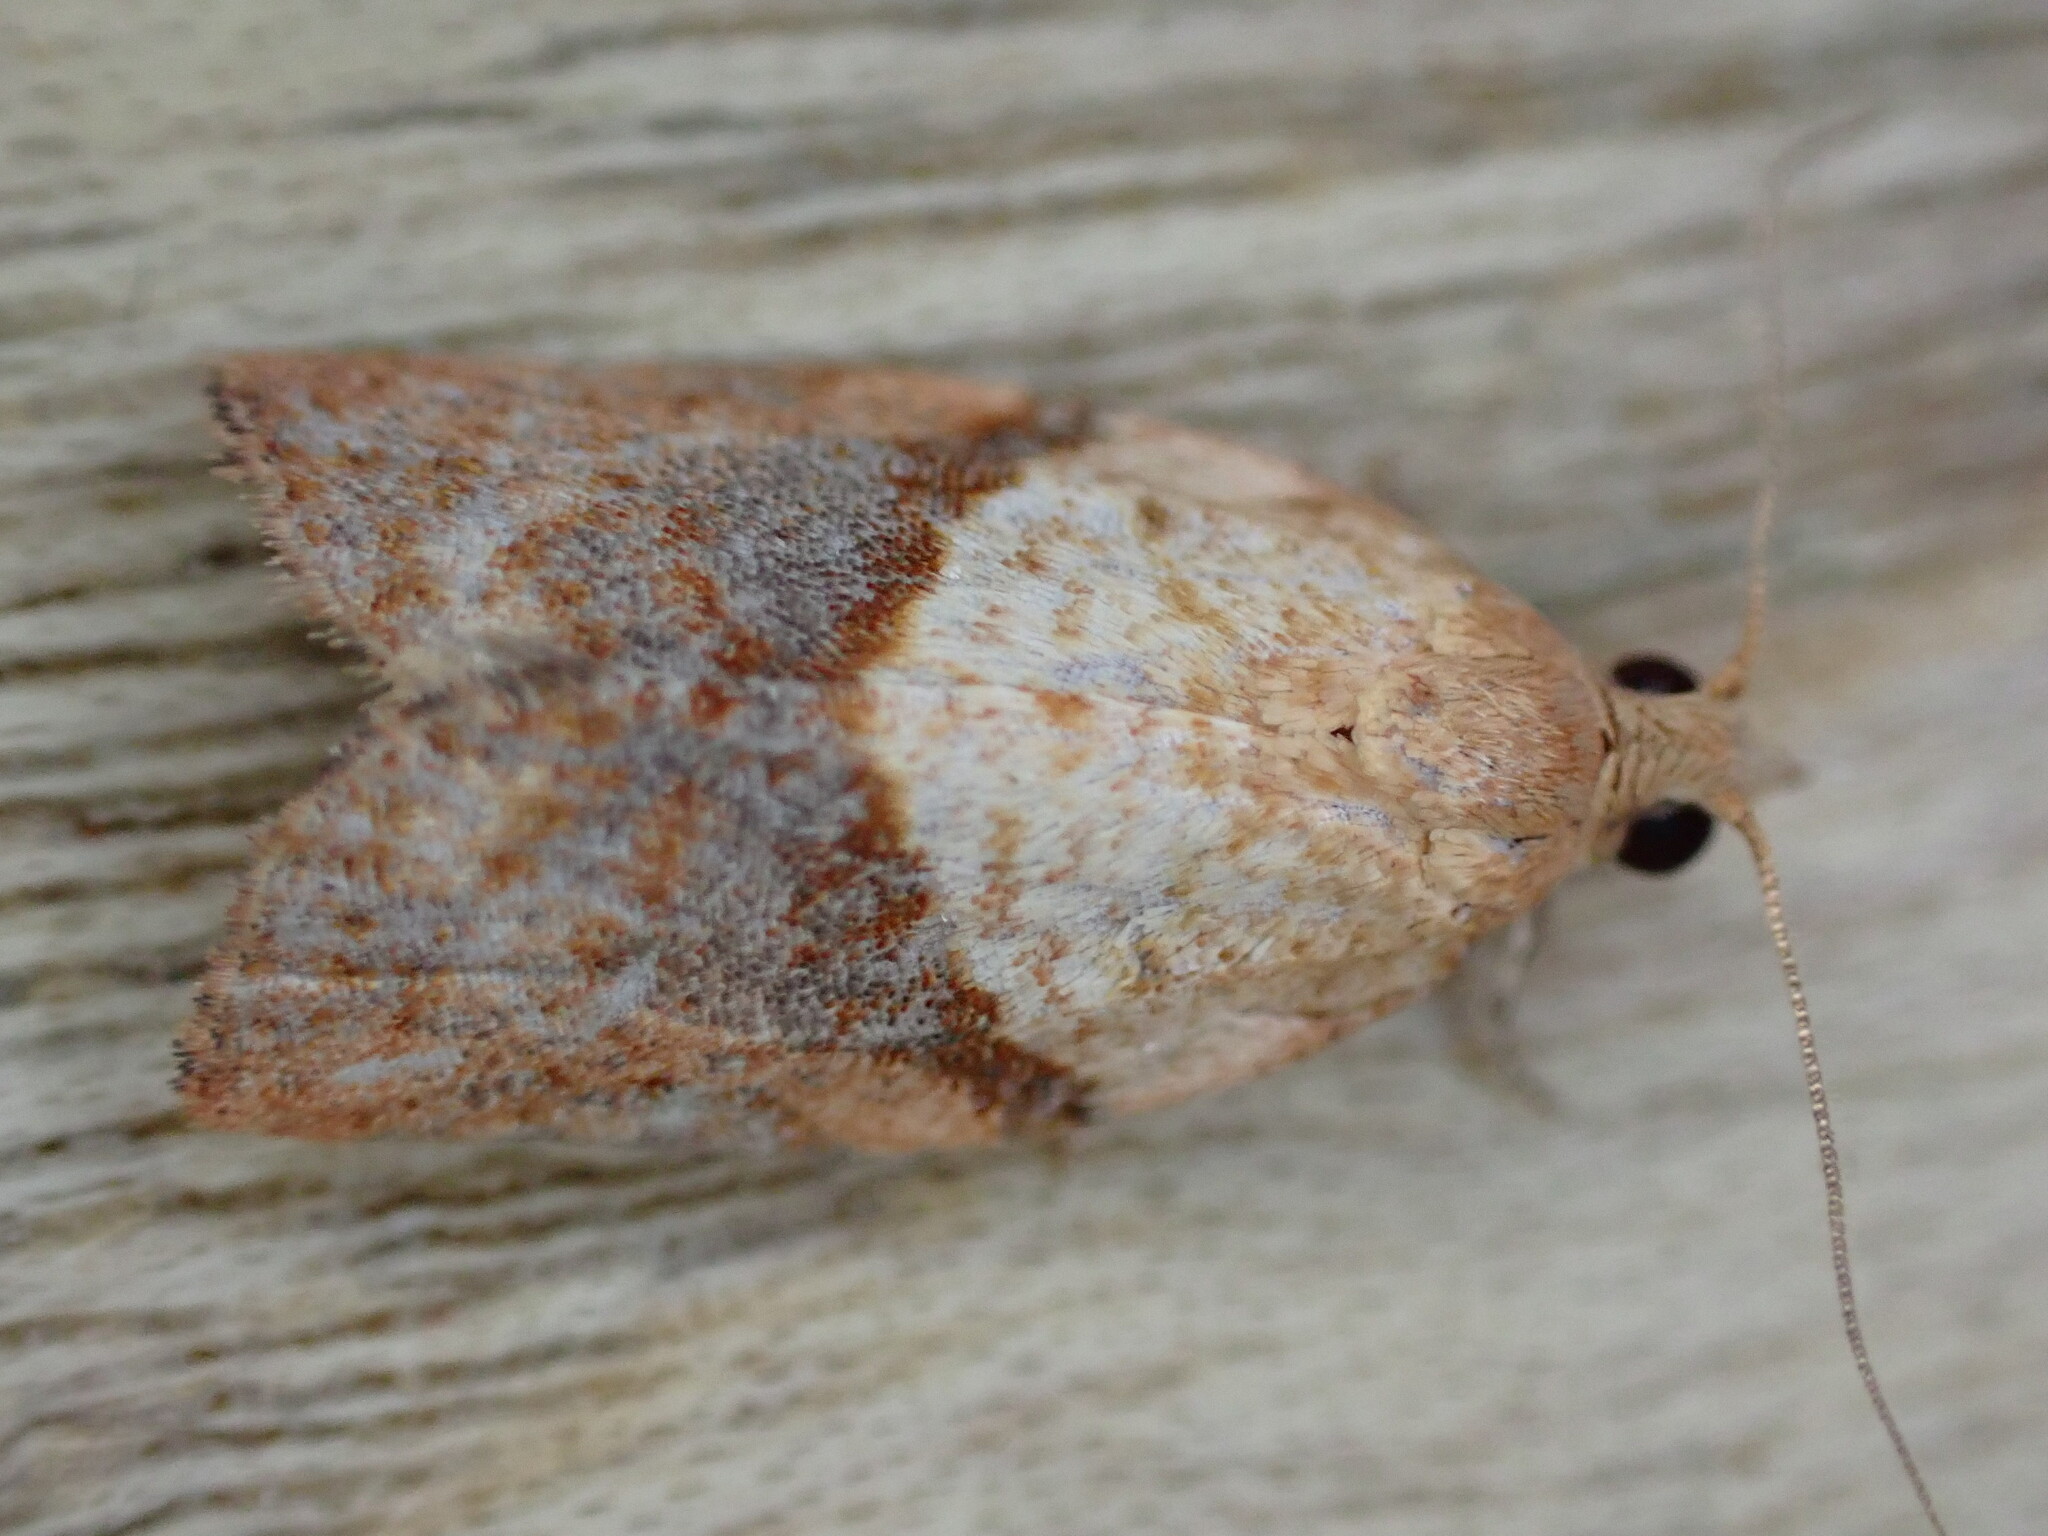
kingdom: Animalia
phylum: Arthropoda
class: Insecta
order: Lepidoptera
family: Tortricidae
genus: Epiphyas
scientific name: Epiphyas postvittana
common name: Light brown apple moth
